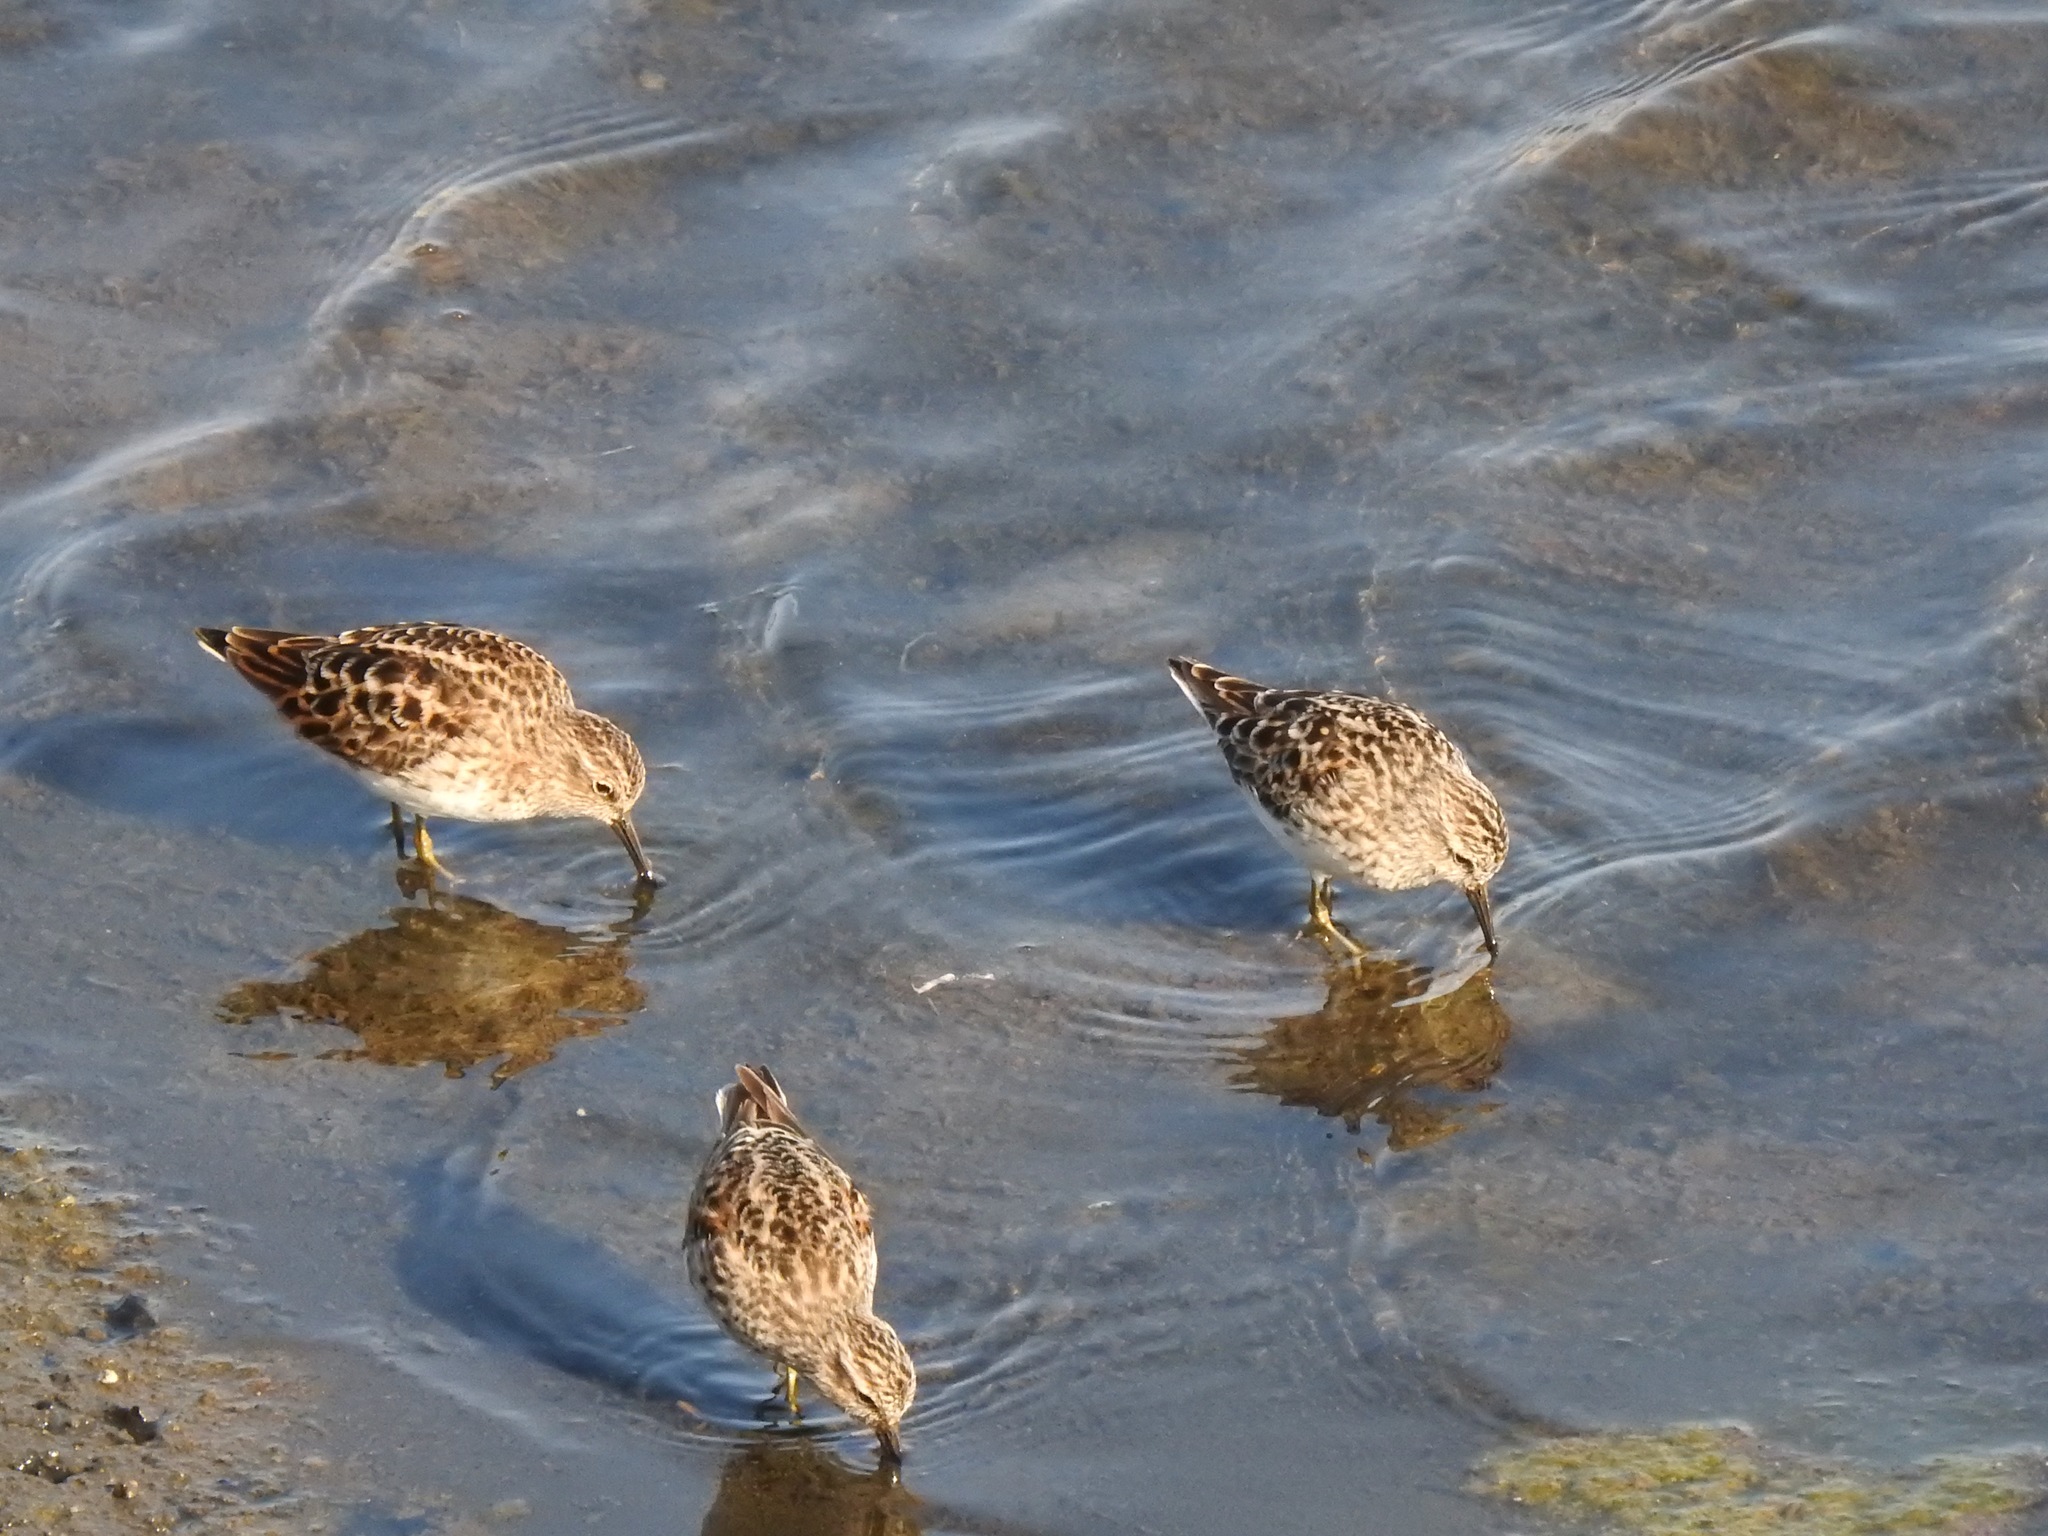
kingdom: Animalia
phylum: Chordata
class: Aves
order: Charadriiformes
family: Scolopacidae
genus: Calidris
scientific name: Calidris minutilla
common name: Least sandpiper
